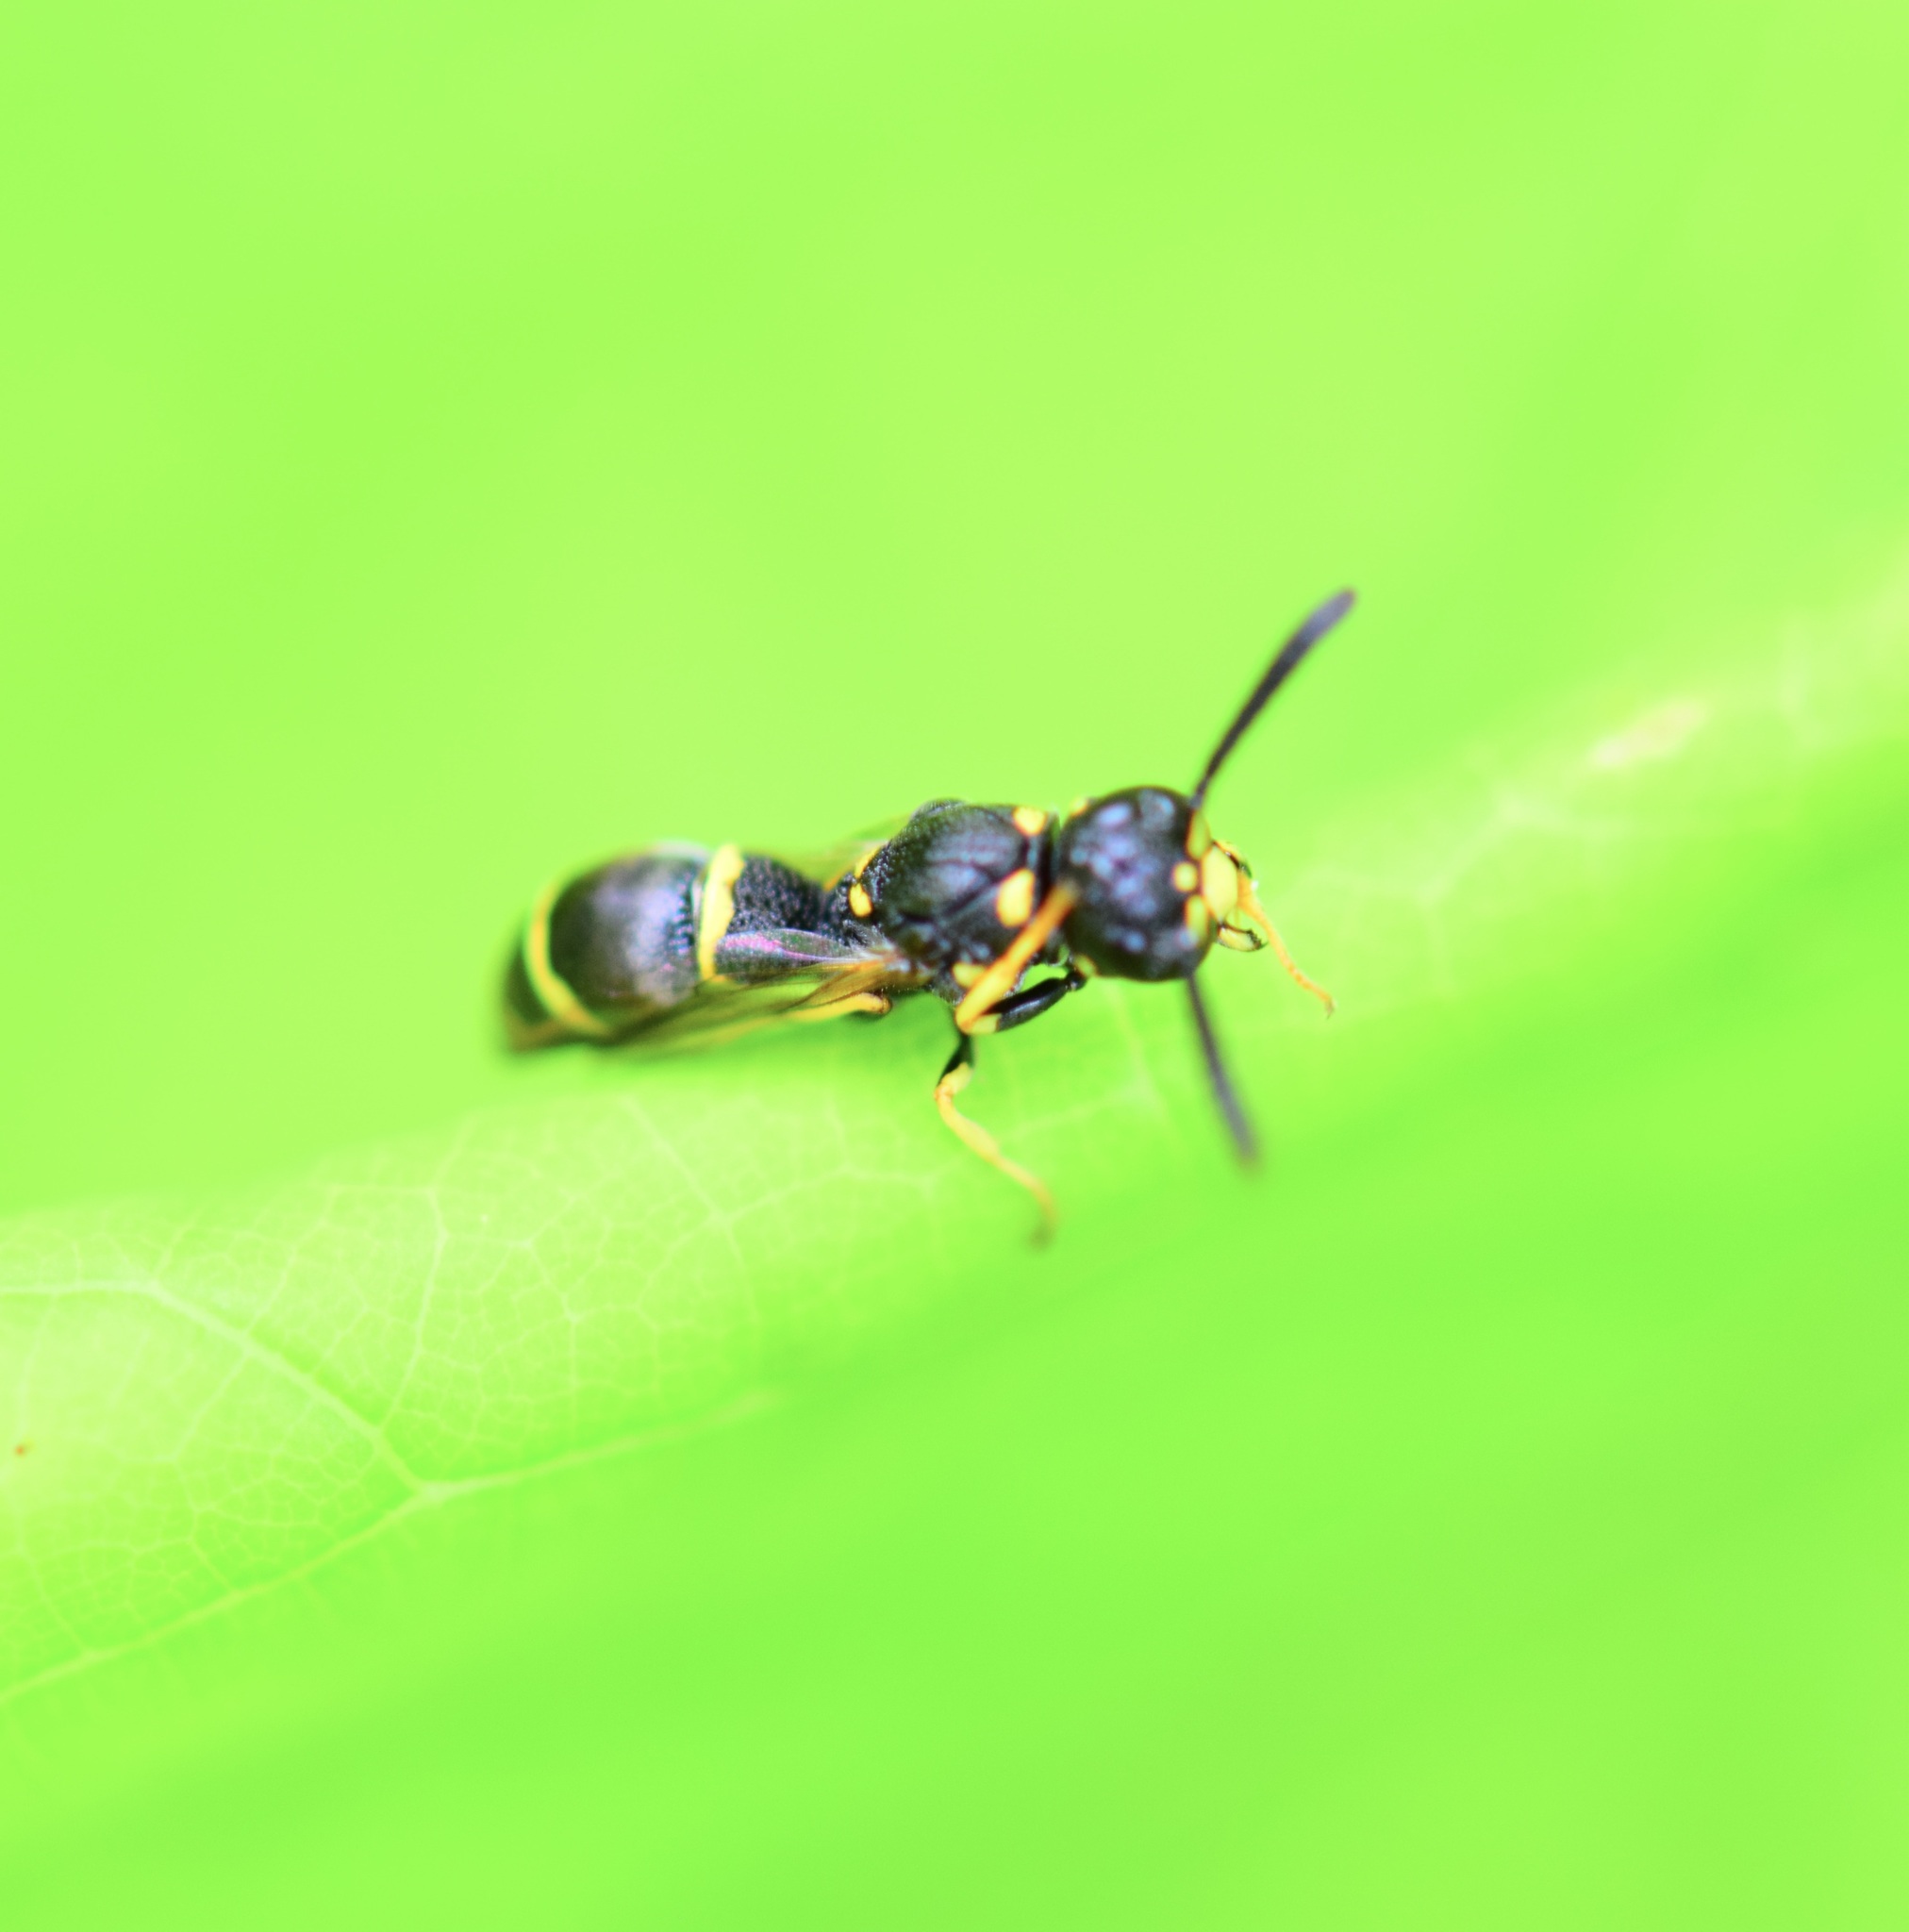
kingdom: Animalia
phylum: Arthropoda
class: Insecta
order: Hymenoptera
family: Eumenidae
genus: Symmorphus
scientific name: Symmorphus
